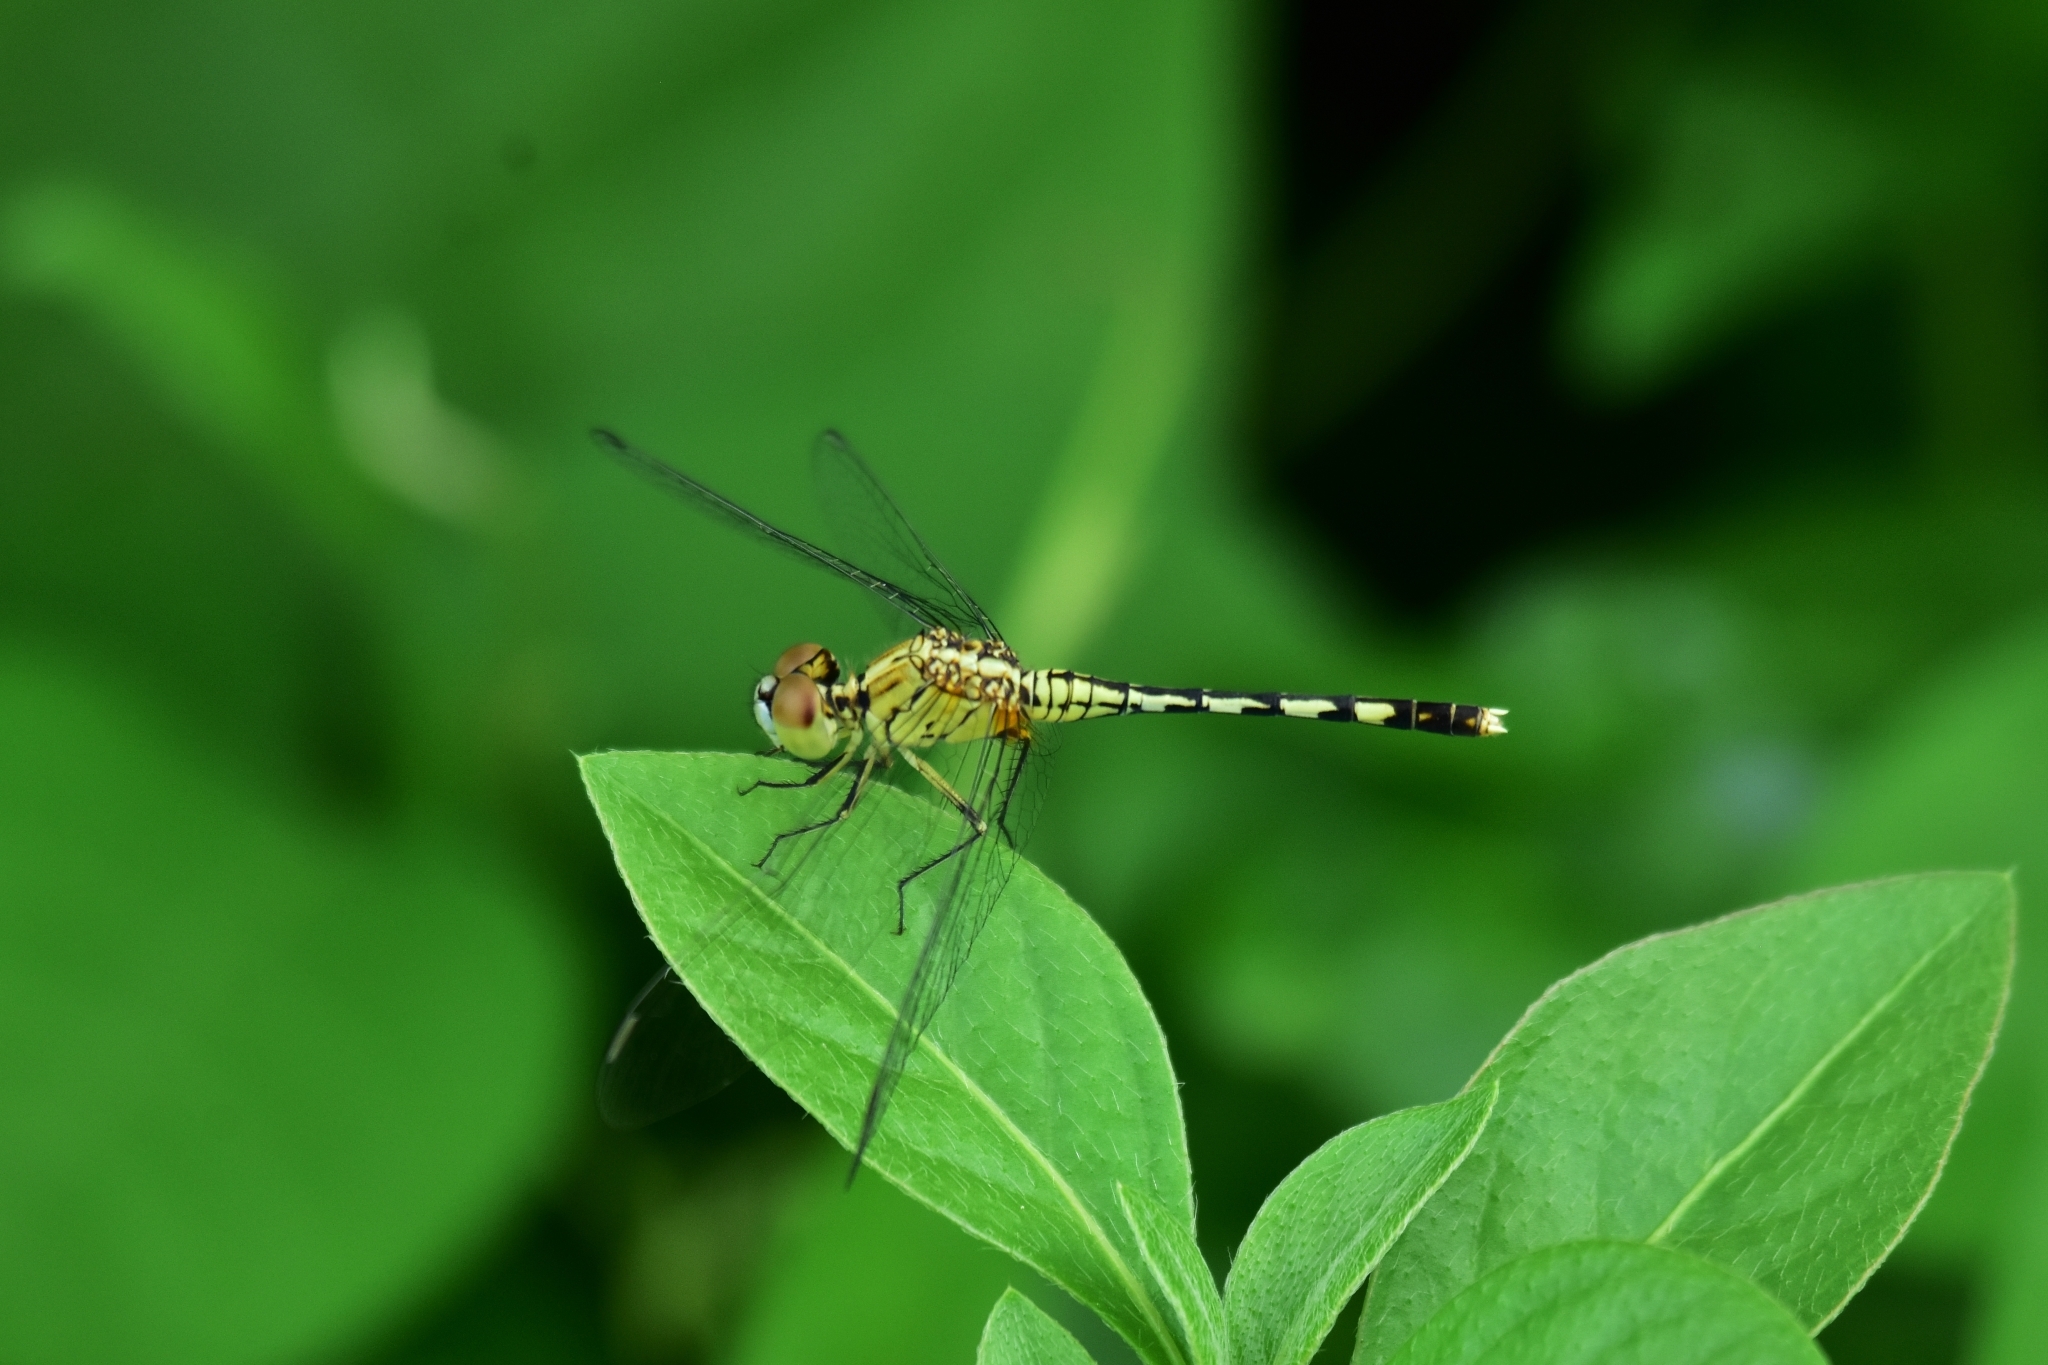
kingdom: Animalia
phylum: Arthropoda
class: Insecta
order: Odonata
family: Libellulidae
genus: Diplacodes
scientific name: Diplacodes trivialis
